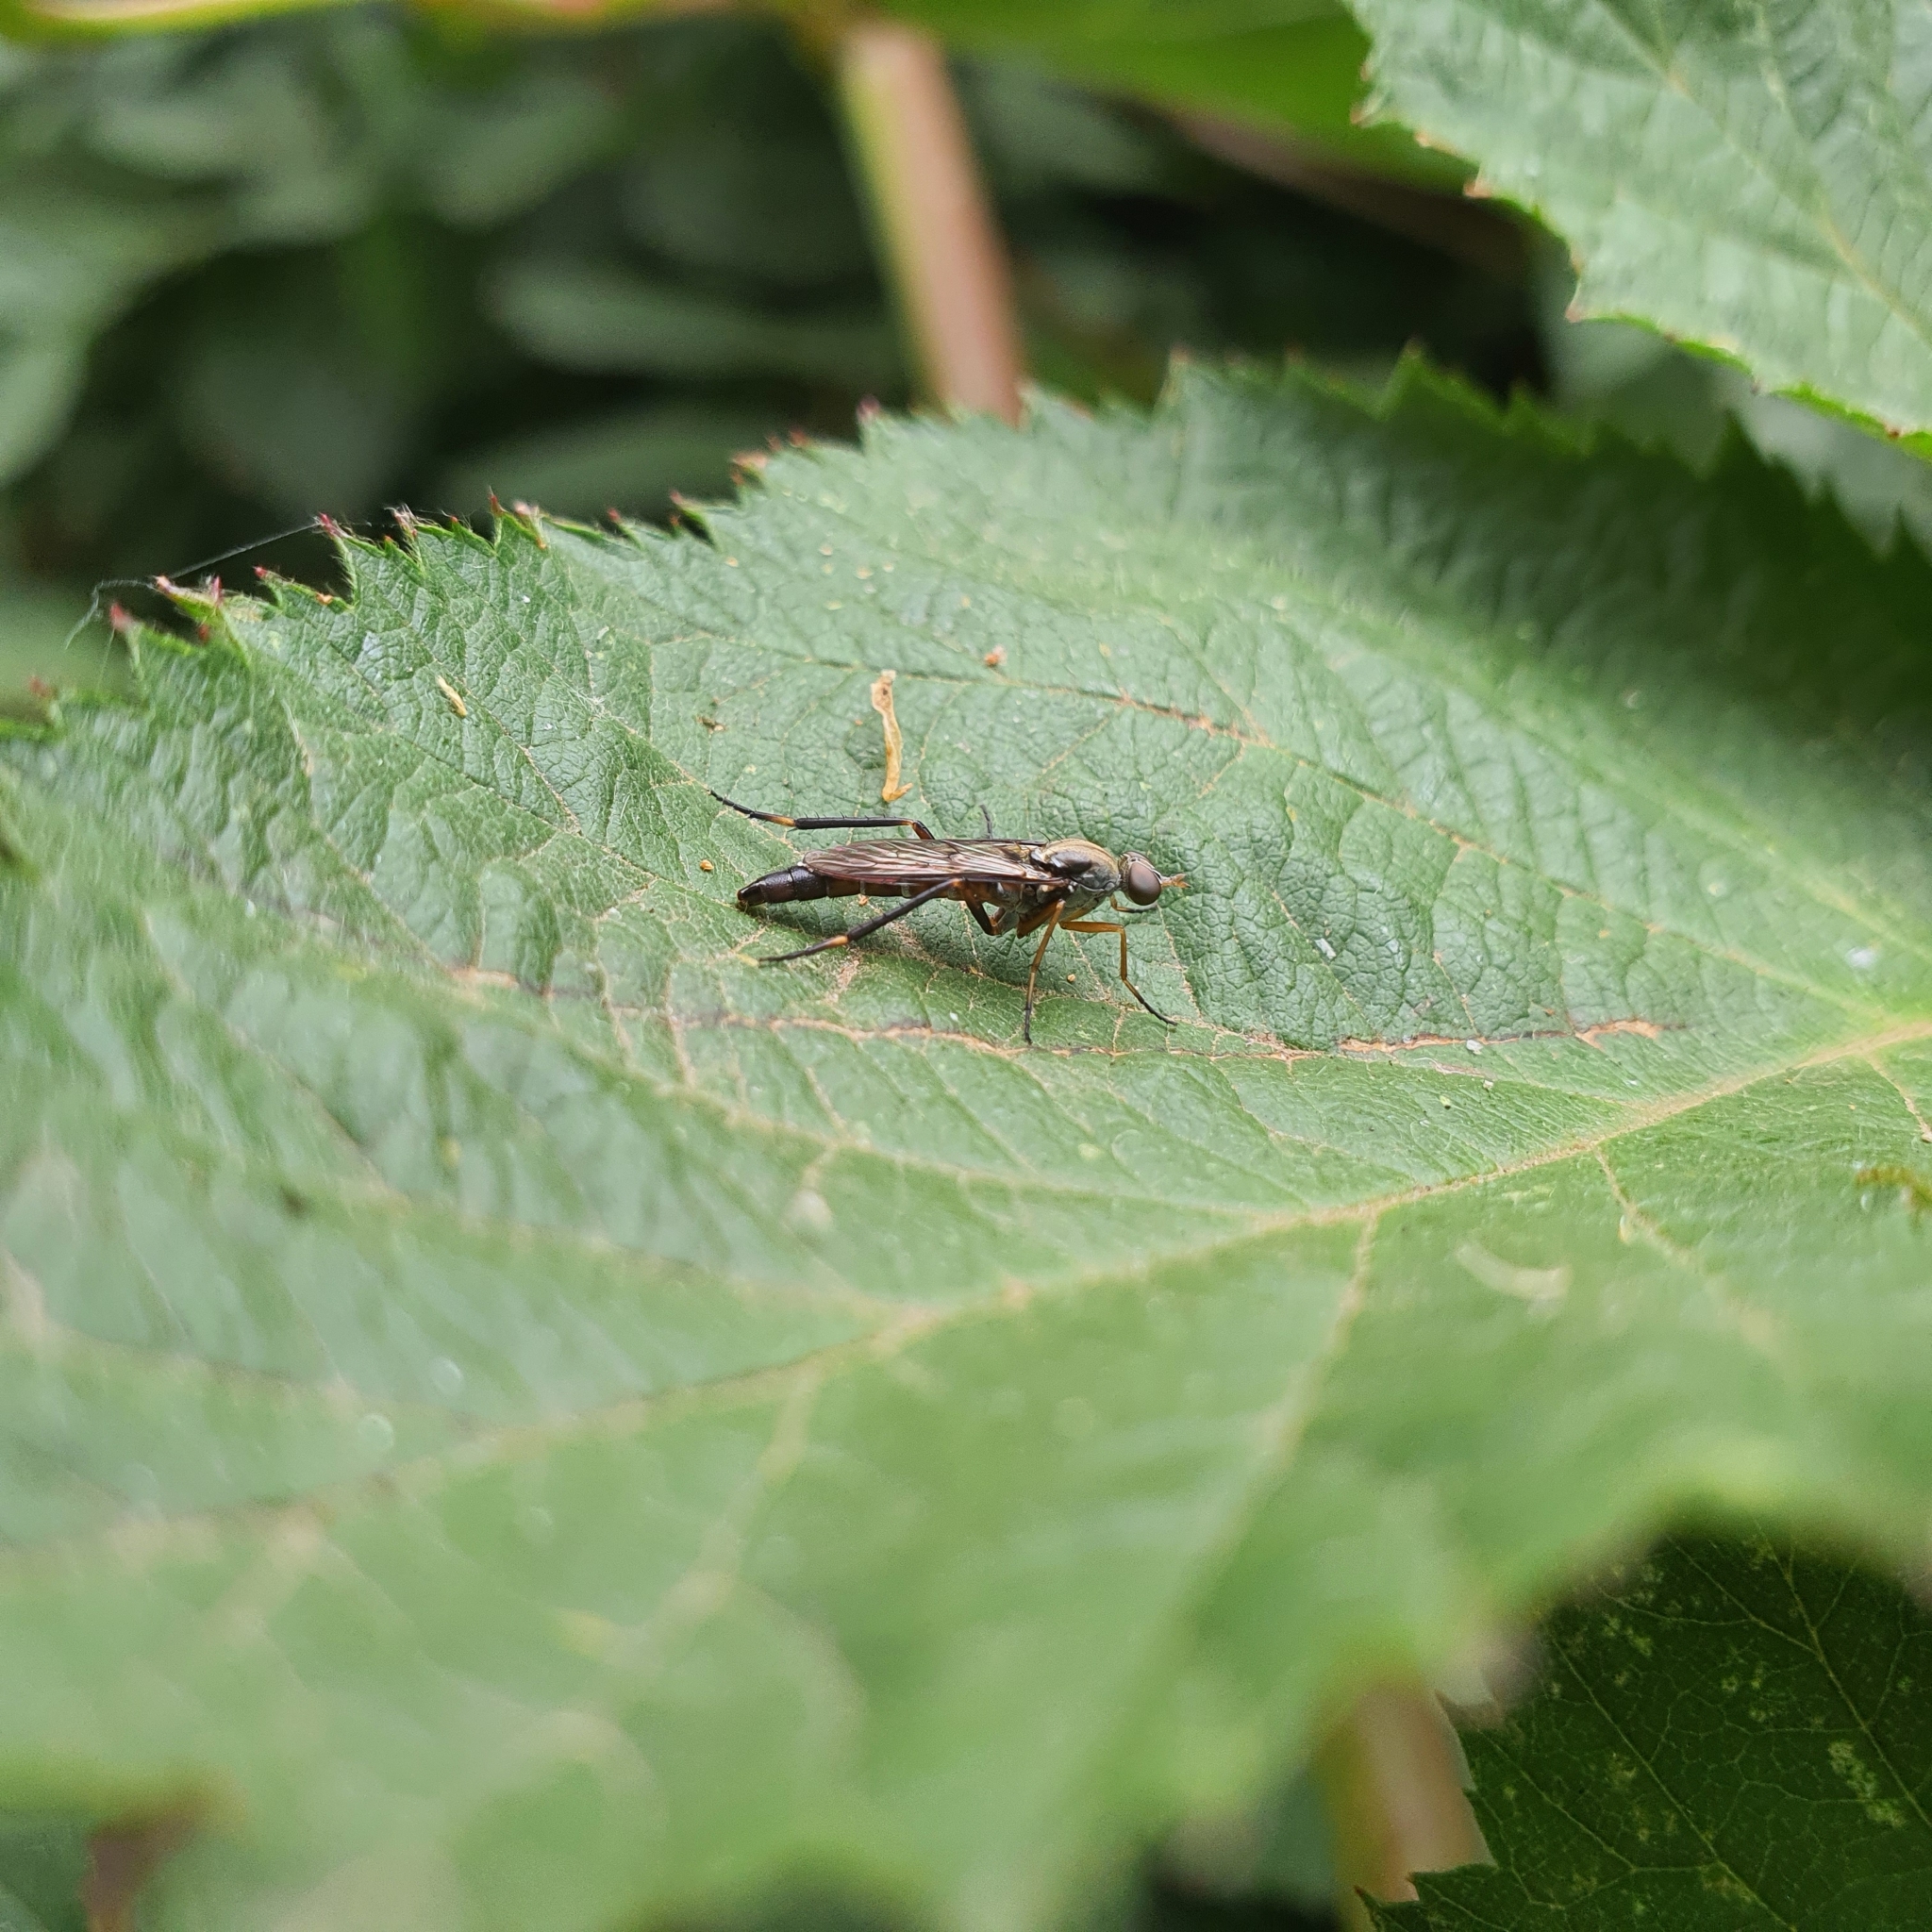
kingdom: Animalia
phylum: Arthropoda
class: Insecta
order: Diptera
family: Therevidae
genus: Taenogerella
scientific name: Taenogerella elizabethae
